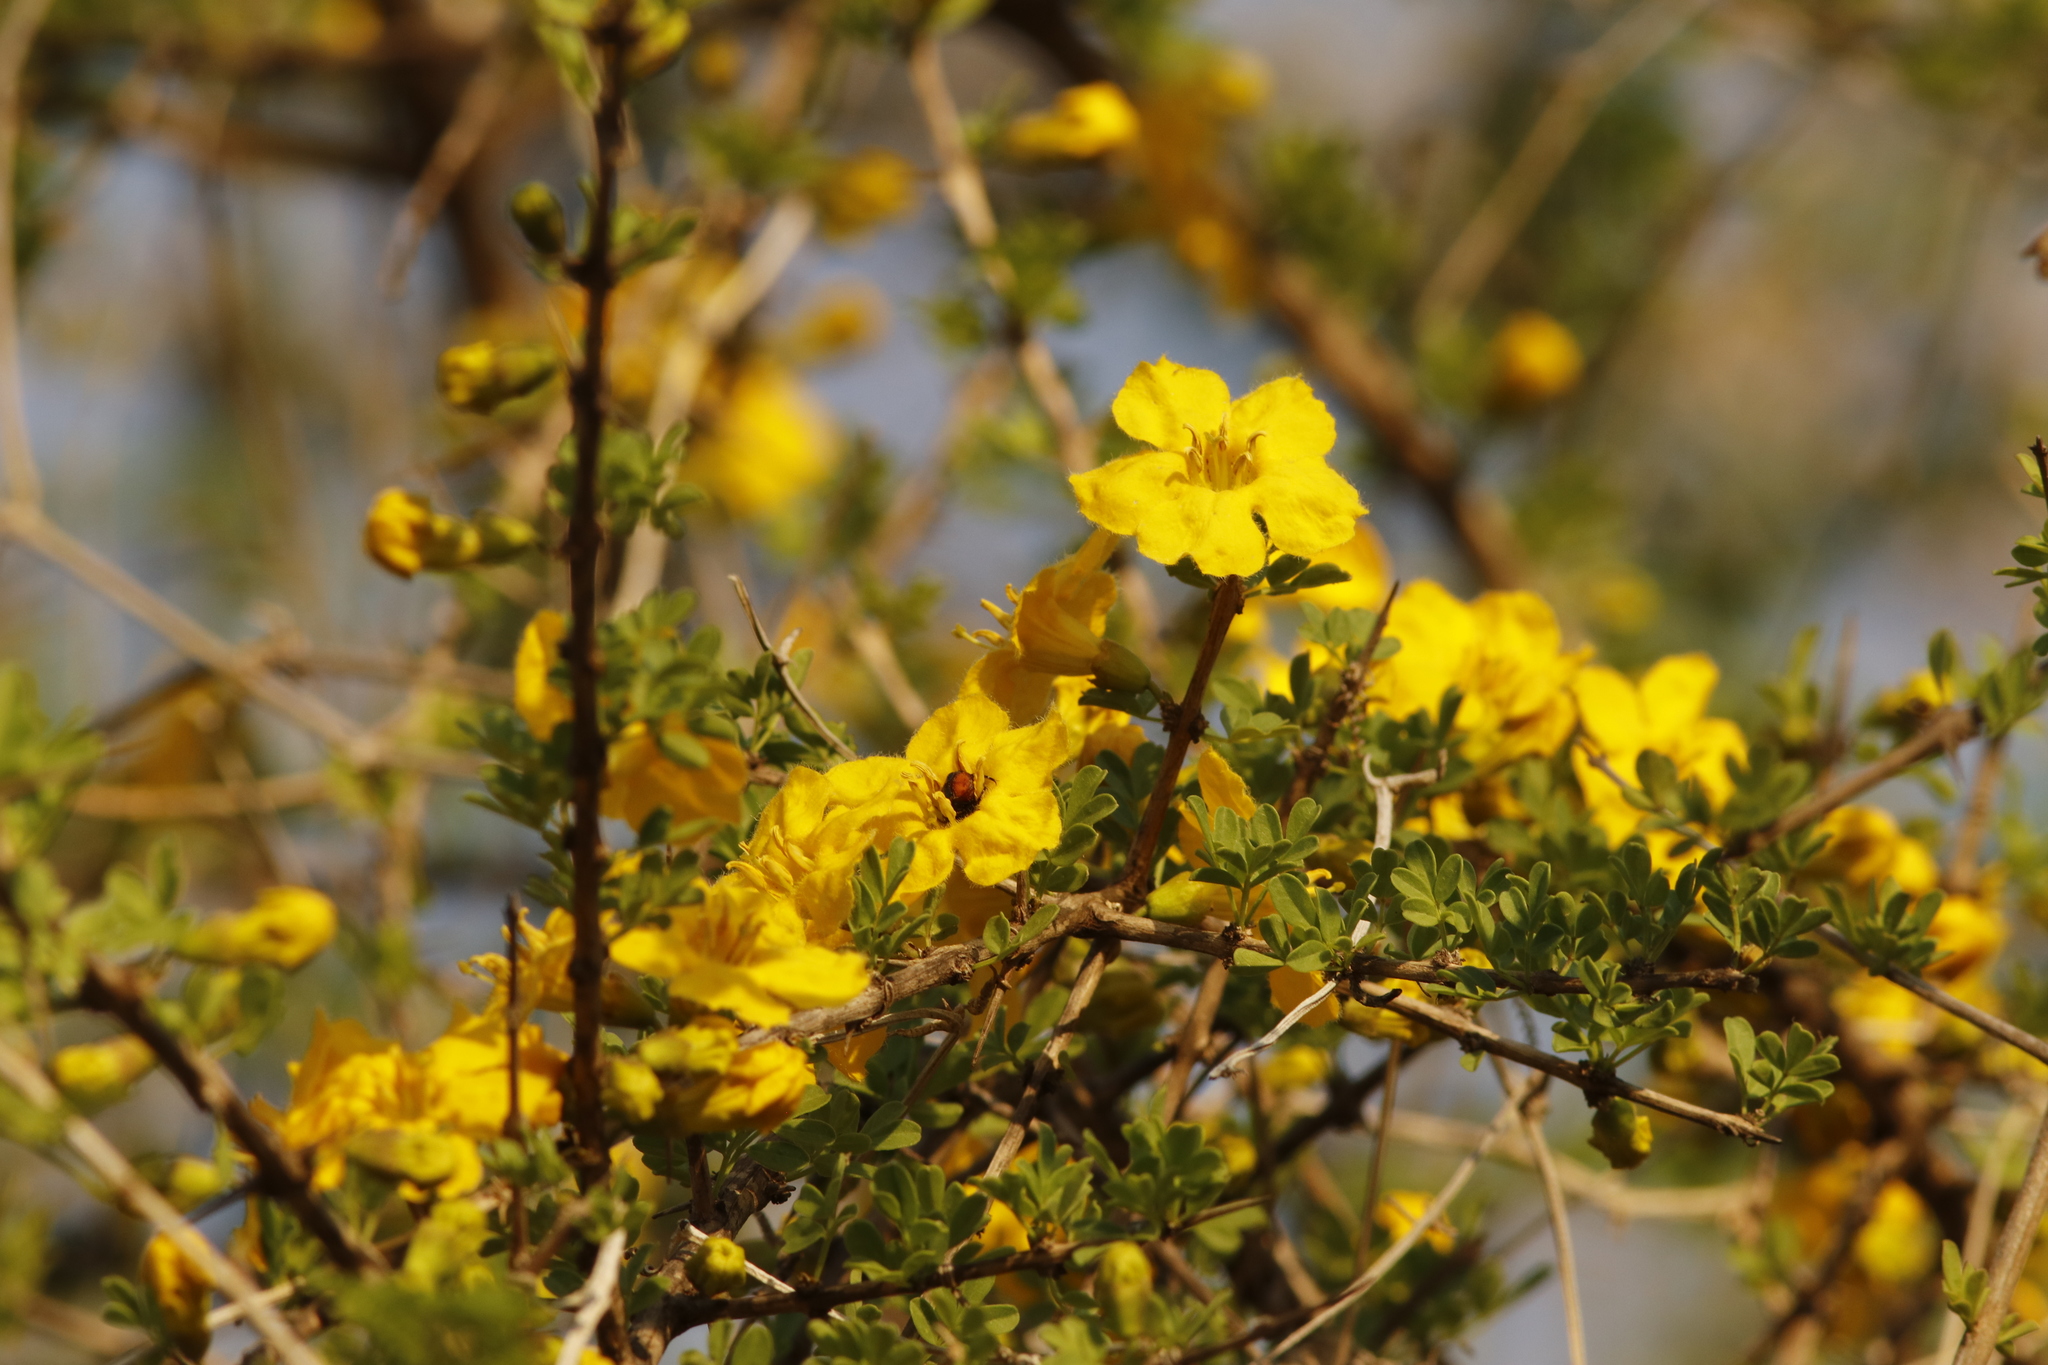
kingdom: Plantae
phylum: Tracheophyta
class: Magnoliopsida
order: Lamiales
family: Bignoniaceae
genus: Rhigozum
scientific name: Rhigozum zambesiacum
